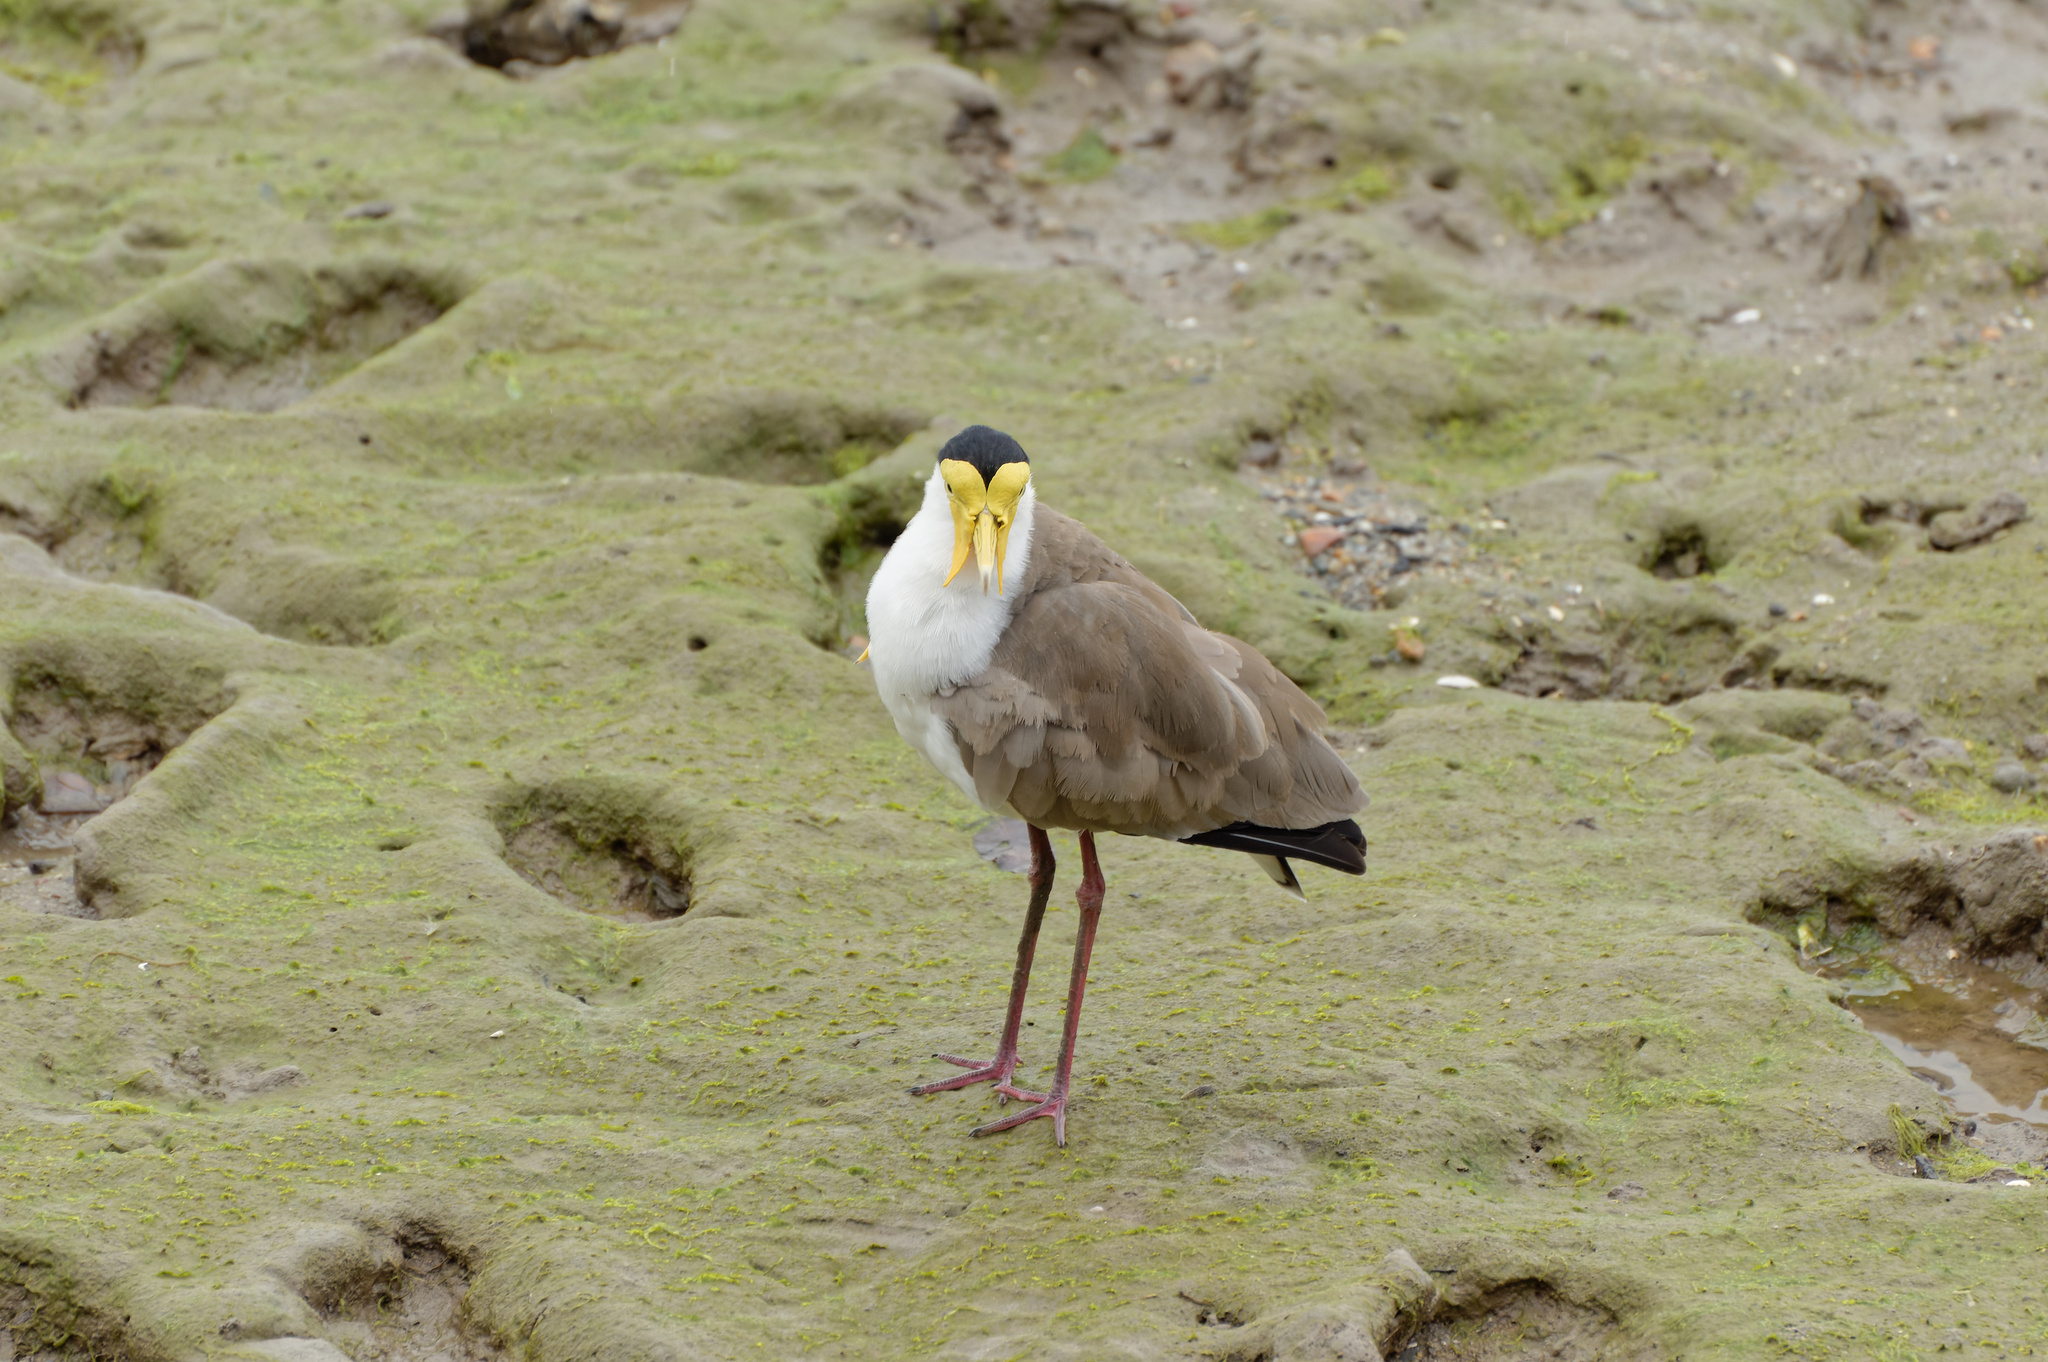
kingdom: Animalia
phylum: Chordata
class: Aves
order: Charadriiformes
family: Charadriidae
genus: Vanellus
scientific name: Vanellus miles
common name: Masked lapwing
